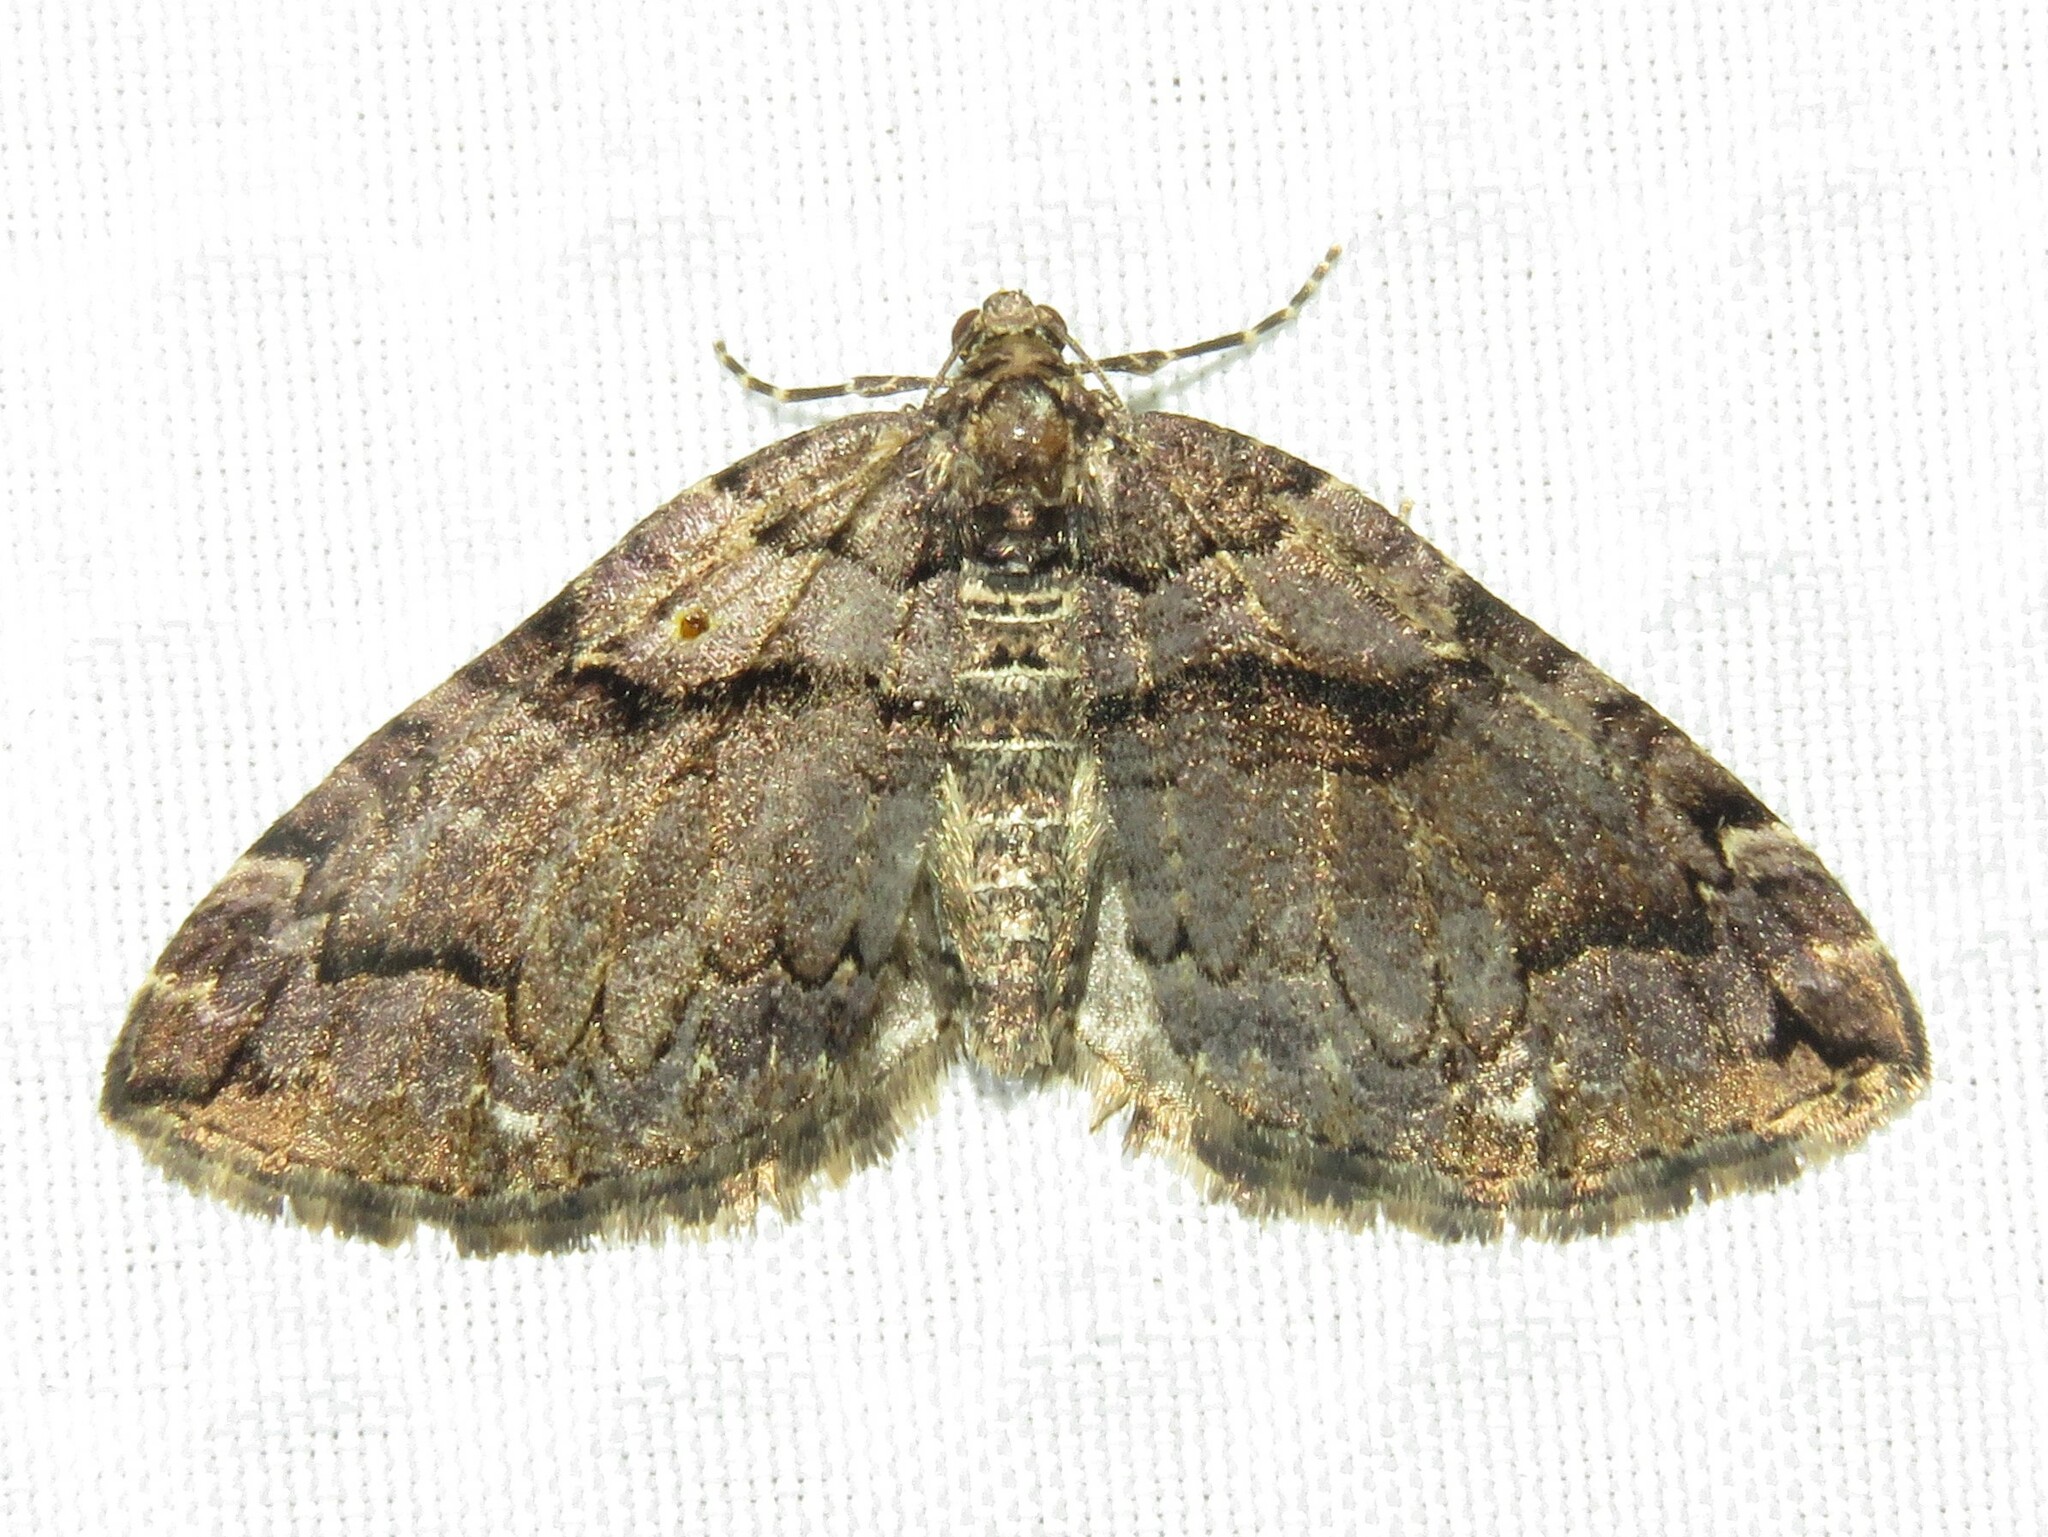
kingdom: Animalia
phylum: Arthropoda
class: Insecta
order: Lepidoptera
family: Geometridae
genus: Anticlea
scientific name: Anticlea vasiliata
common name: Variable carpet
